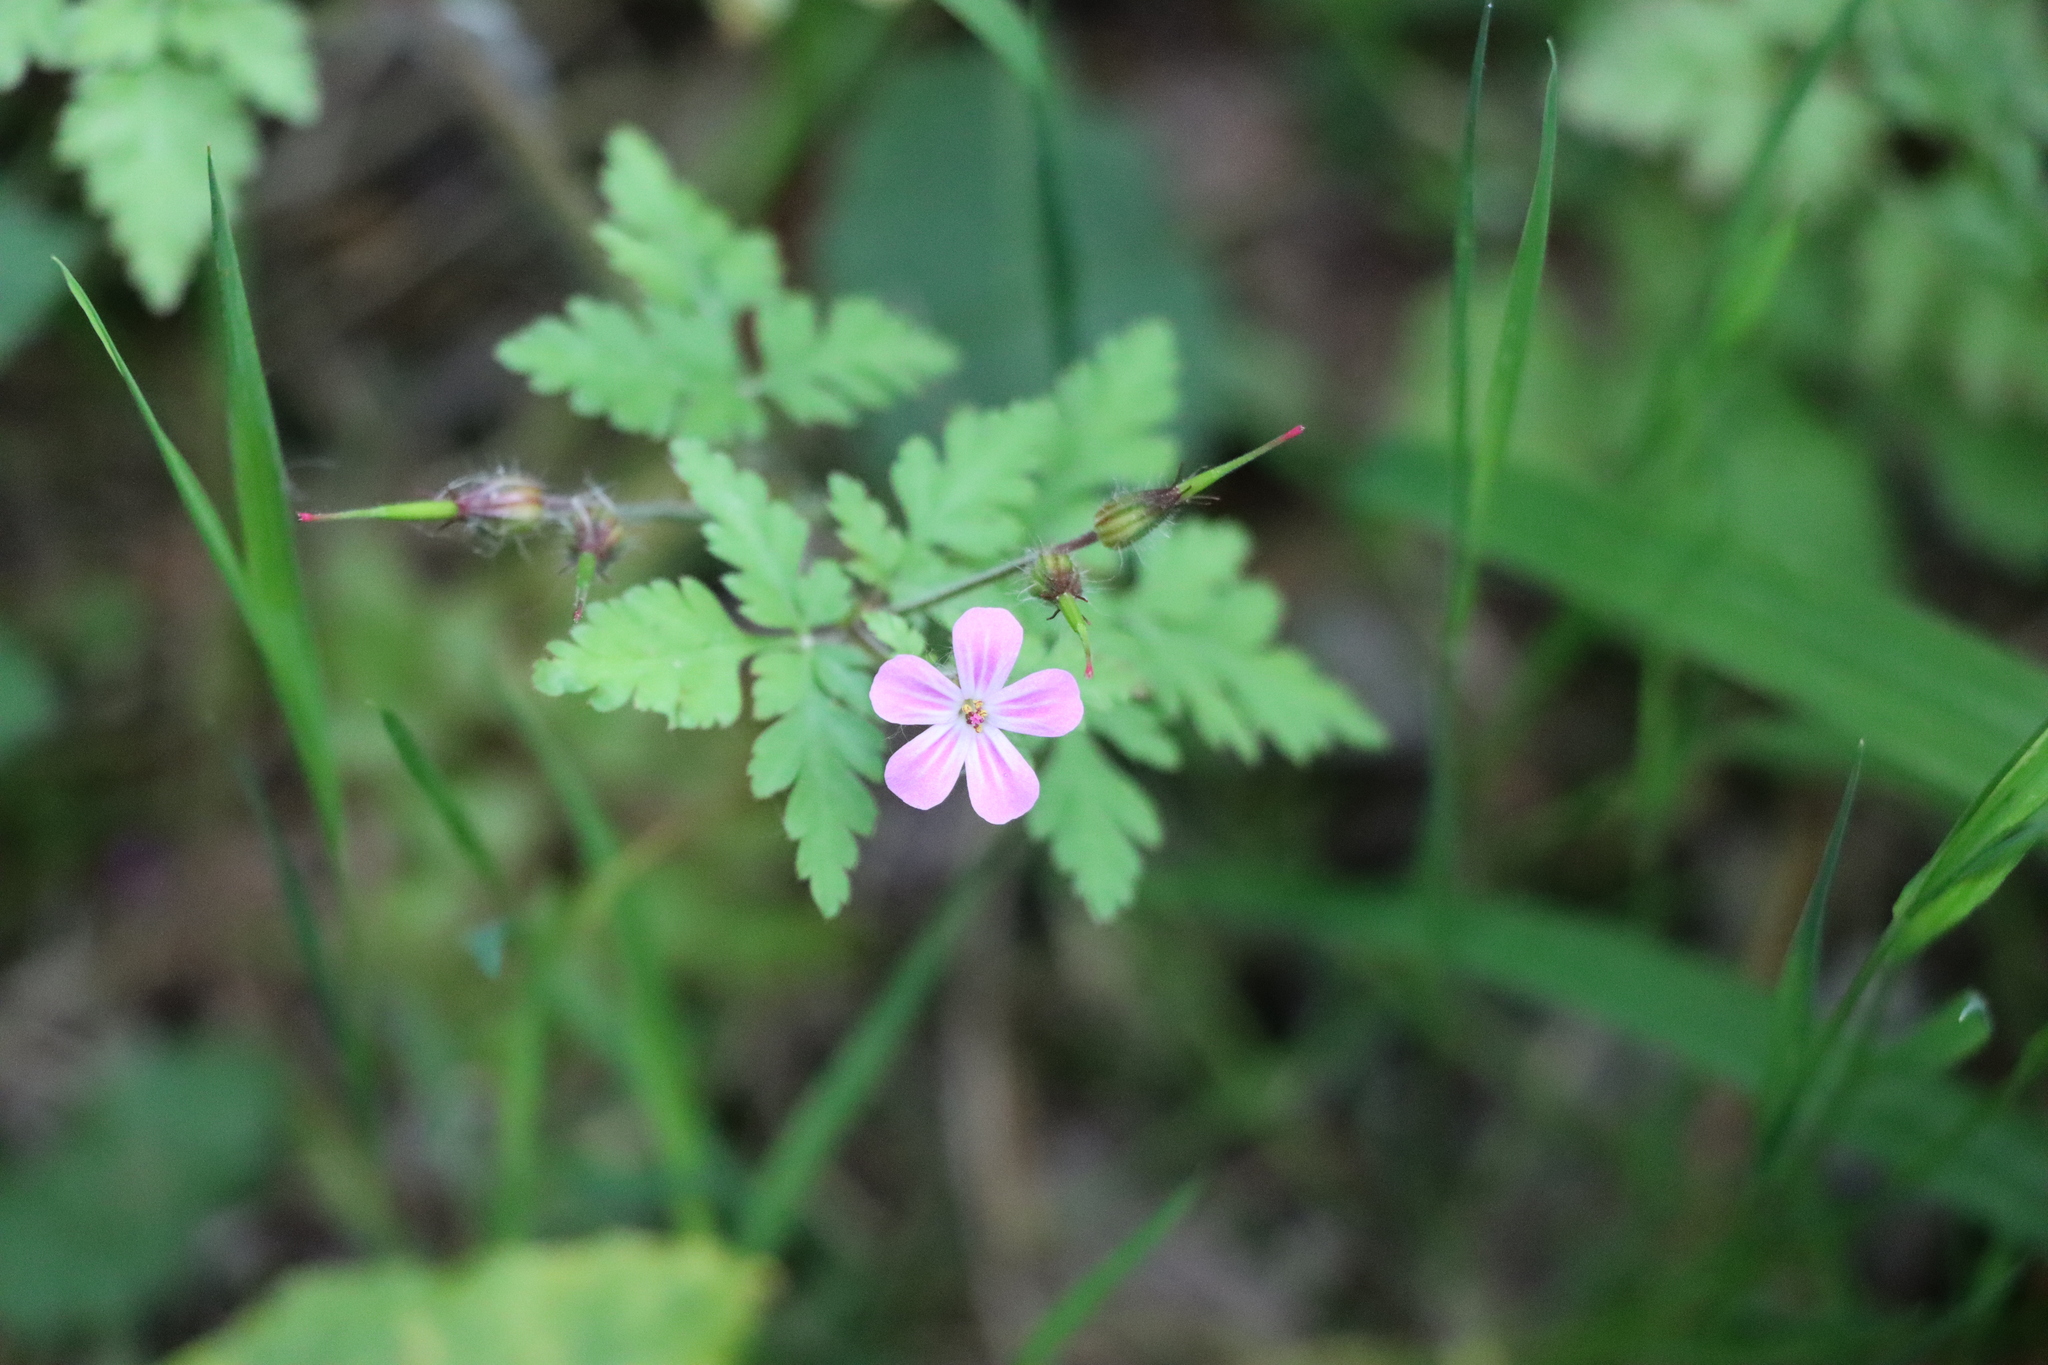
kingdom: Plantae
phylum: Tracheophyta
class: Magnoliopsida
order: Geraniales
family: Geraniaceae
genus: Geranium
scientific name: Geranium robertianum
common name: Herb-robert
